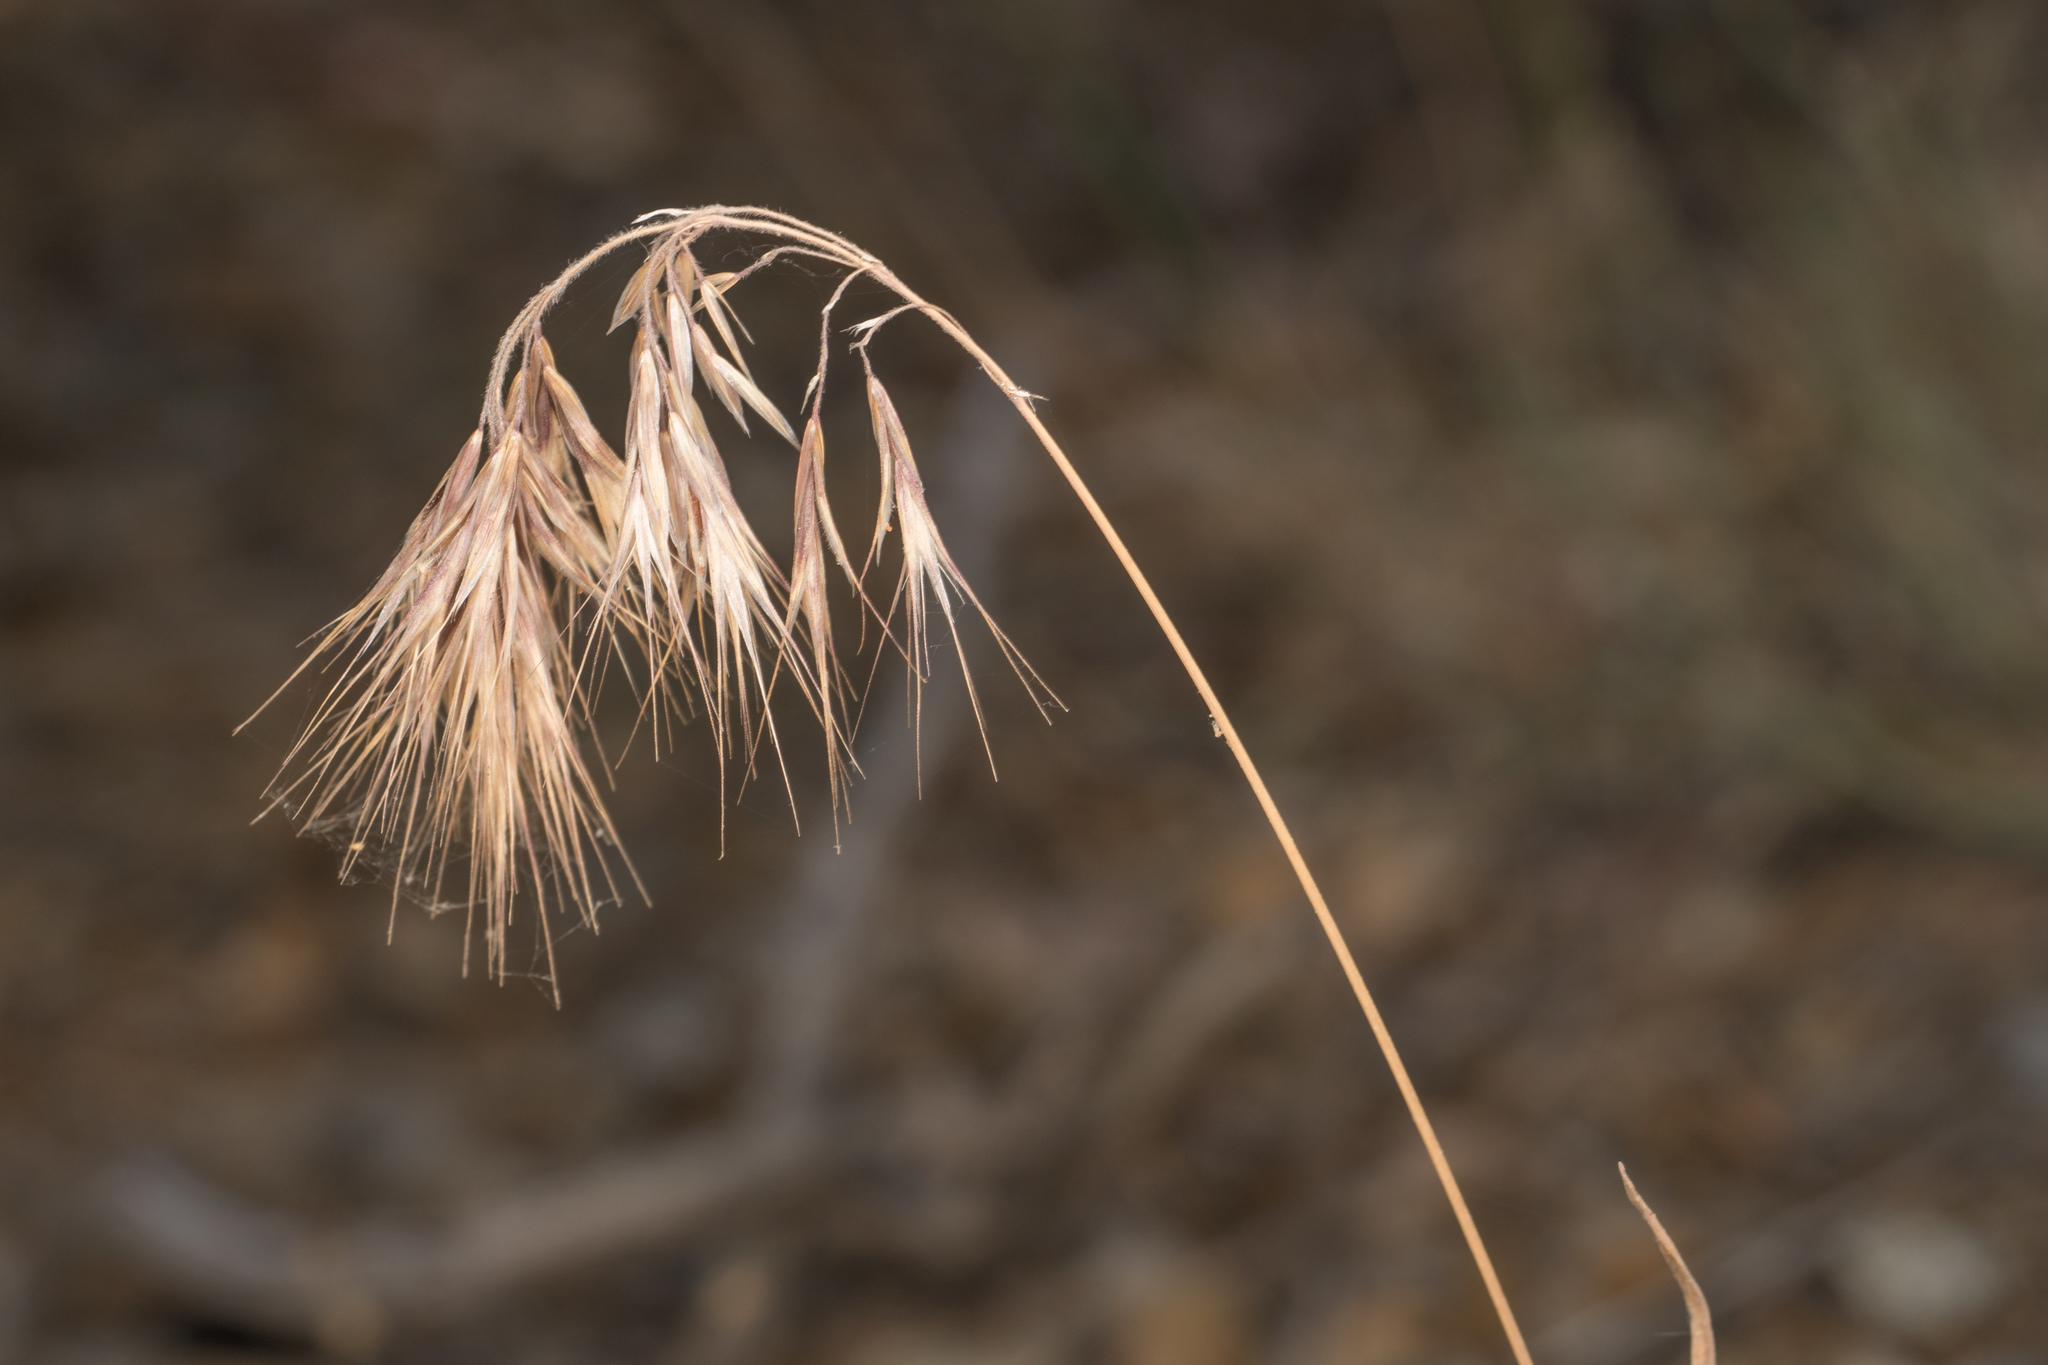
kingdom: Plantae
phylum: Tracheophyta
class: Liliopsida
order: Poales
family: Poaceae
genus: Bromus
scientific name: Bromus tectorum
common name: Cheatgrass
